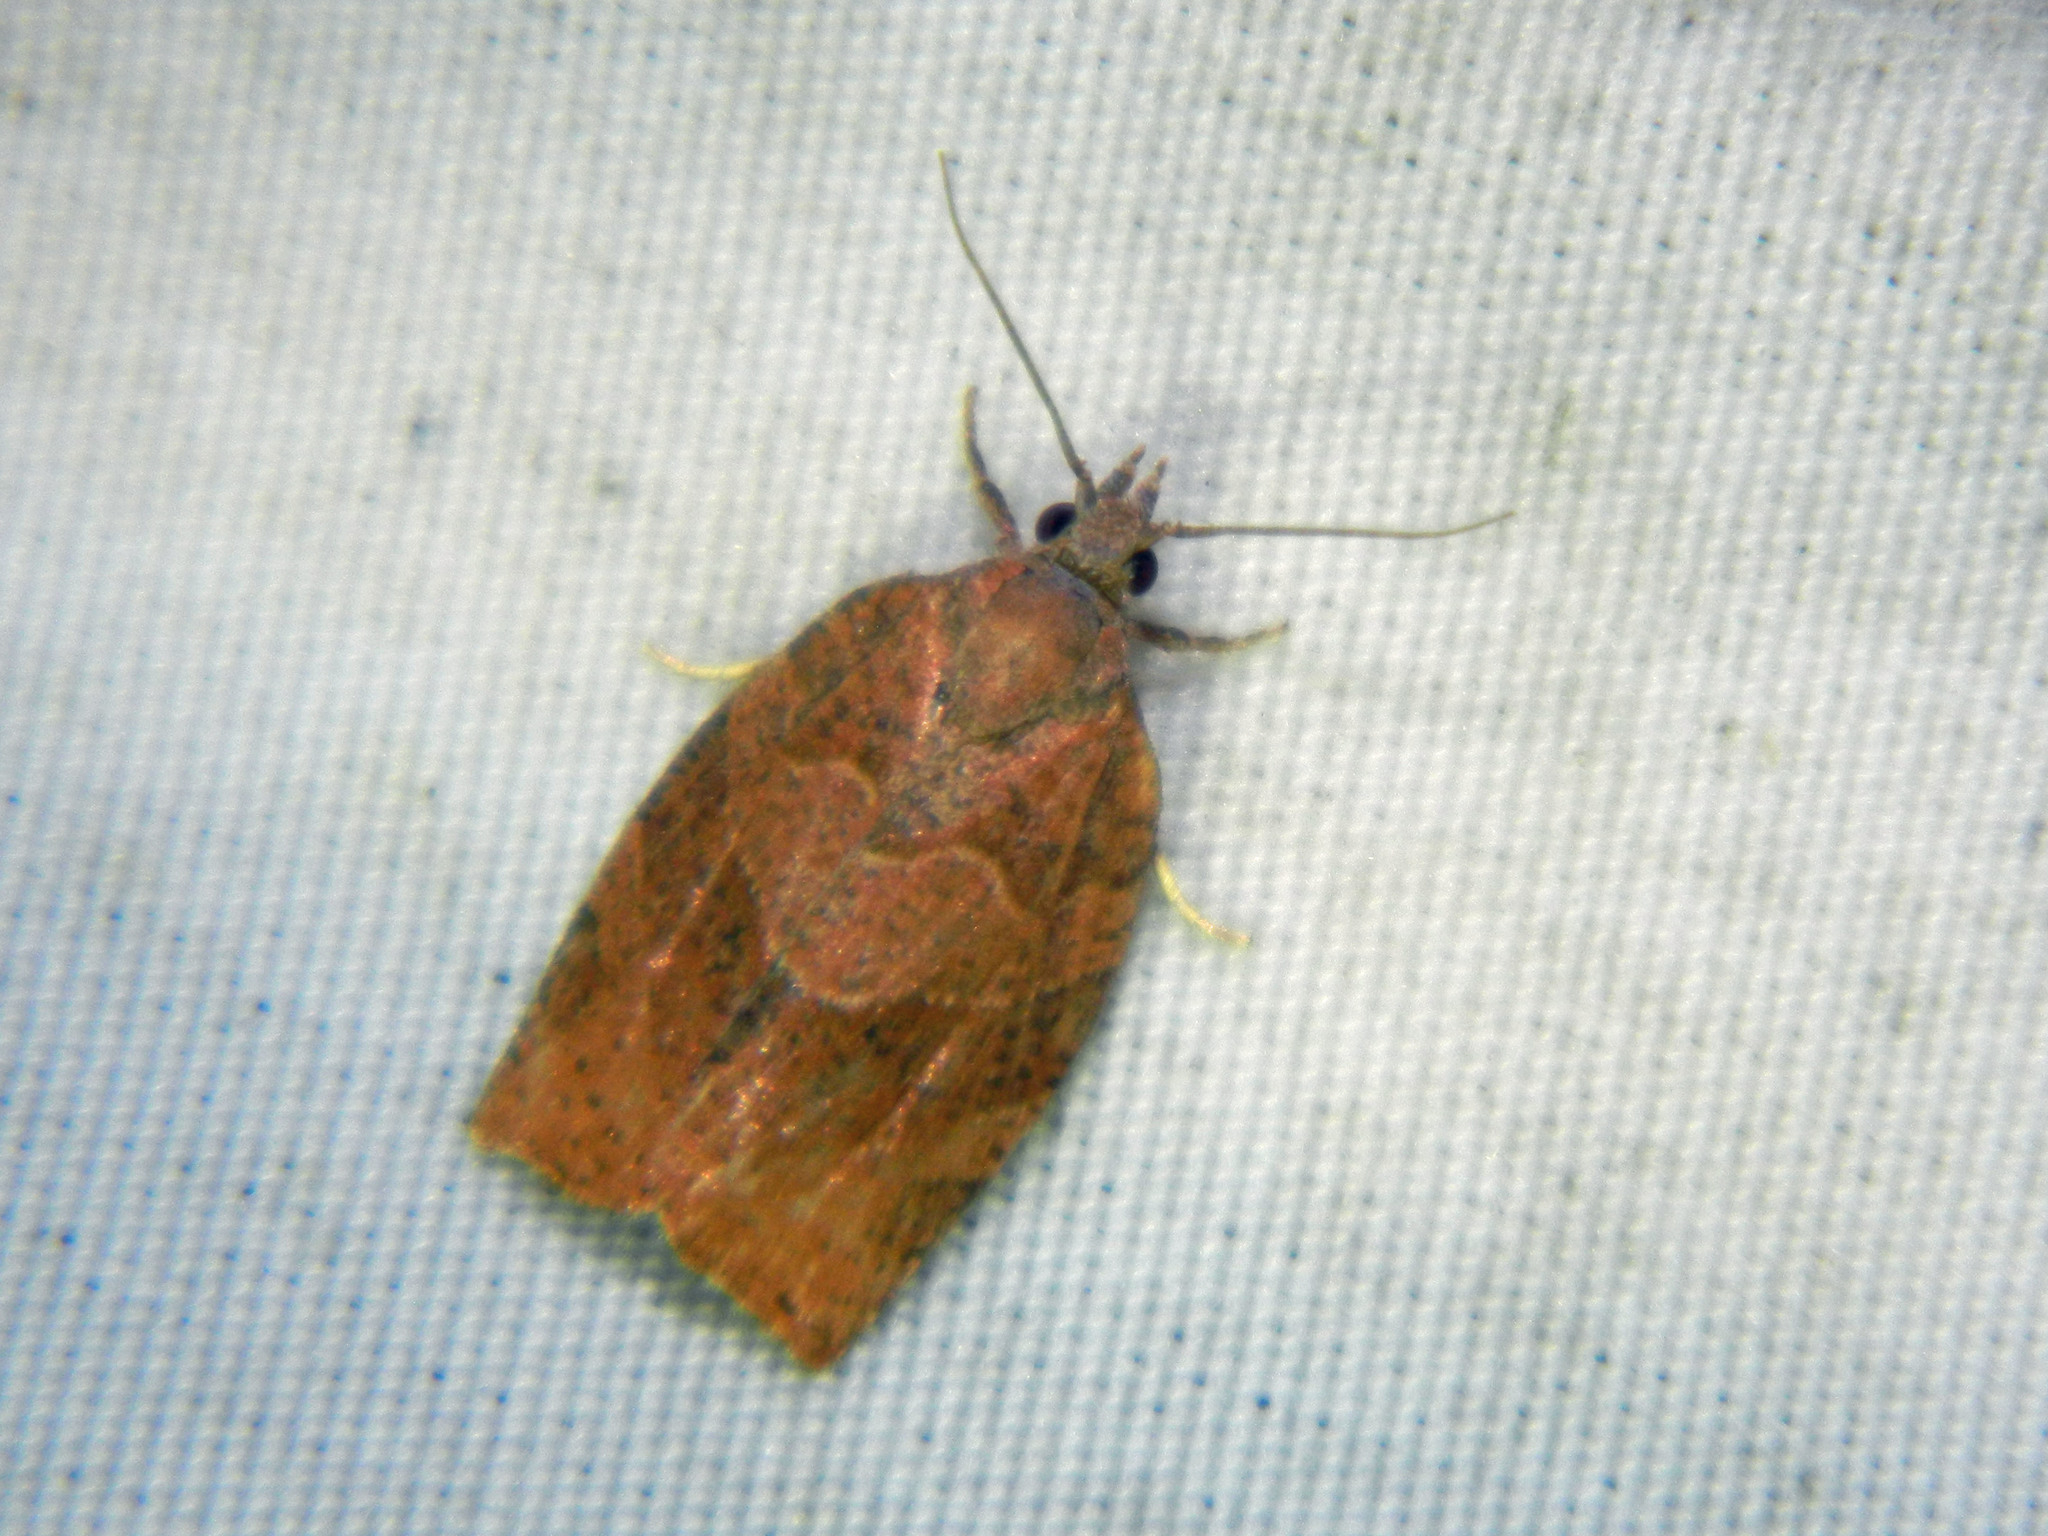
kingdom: Animalia
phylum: Arthropoda
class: Insecta
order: Lepidoptera
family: Tortricidae
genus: Pandemis
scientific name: Pandemis canadana
